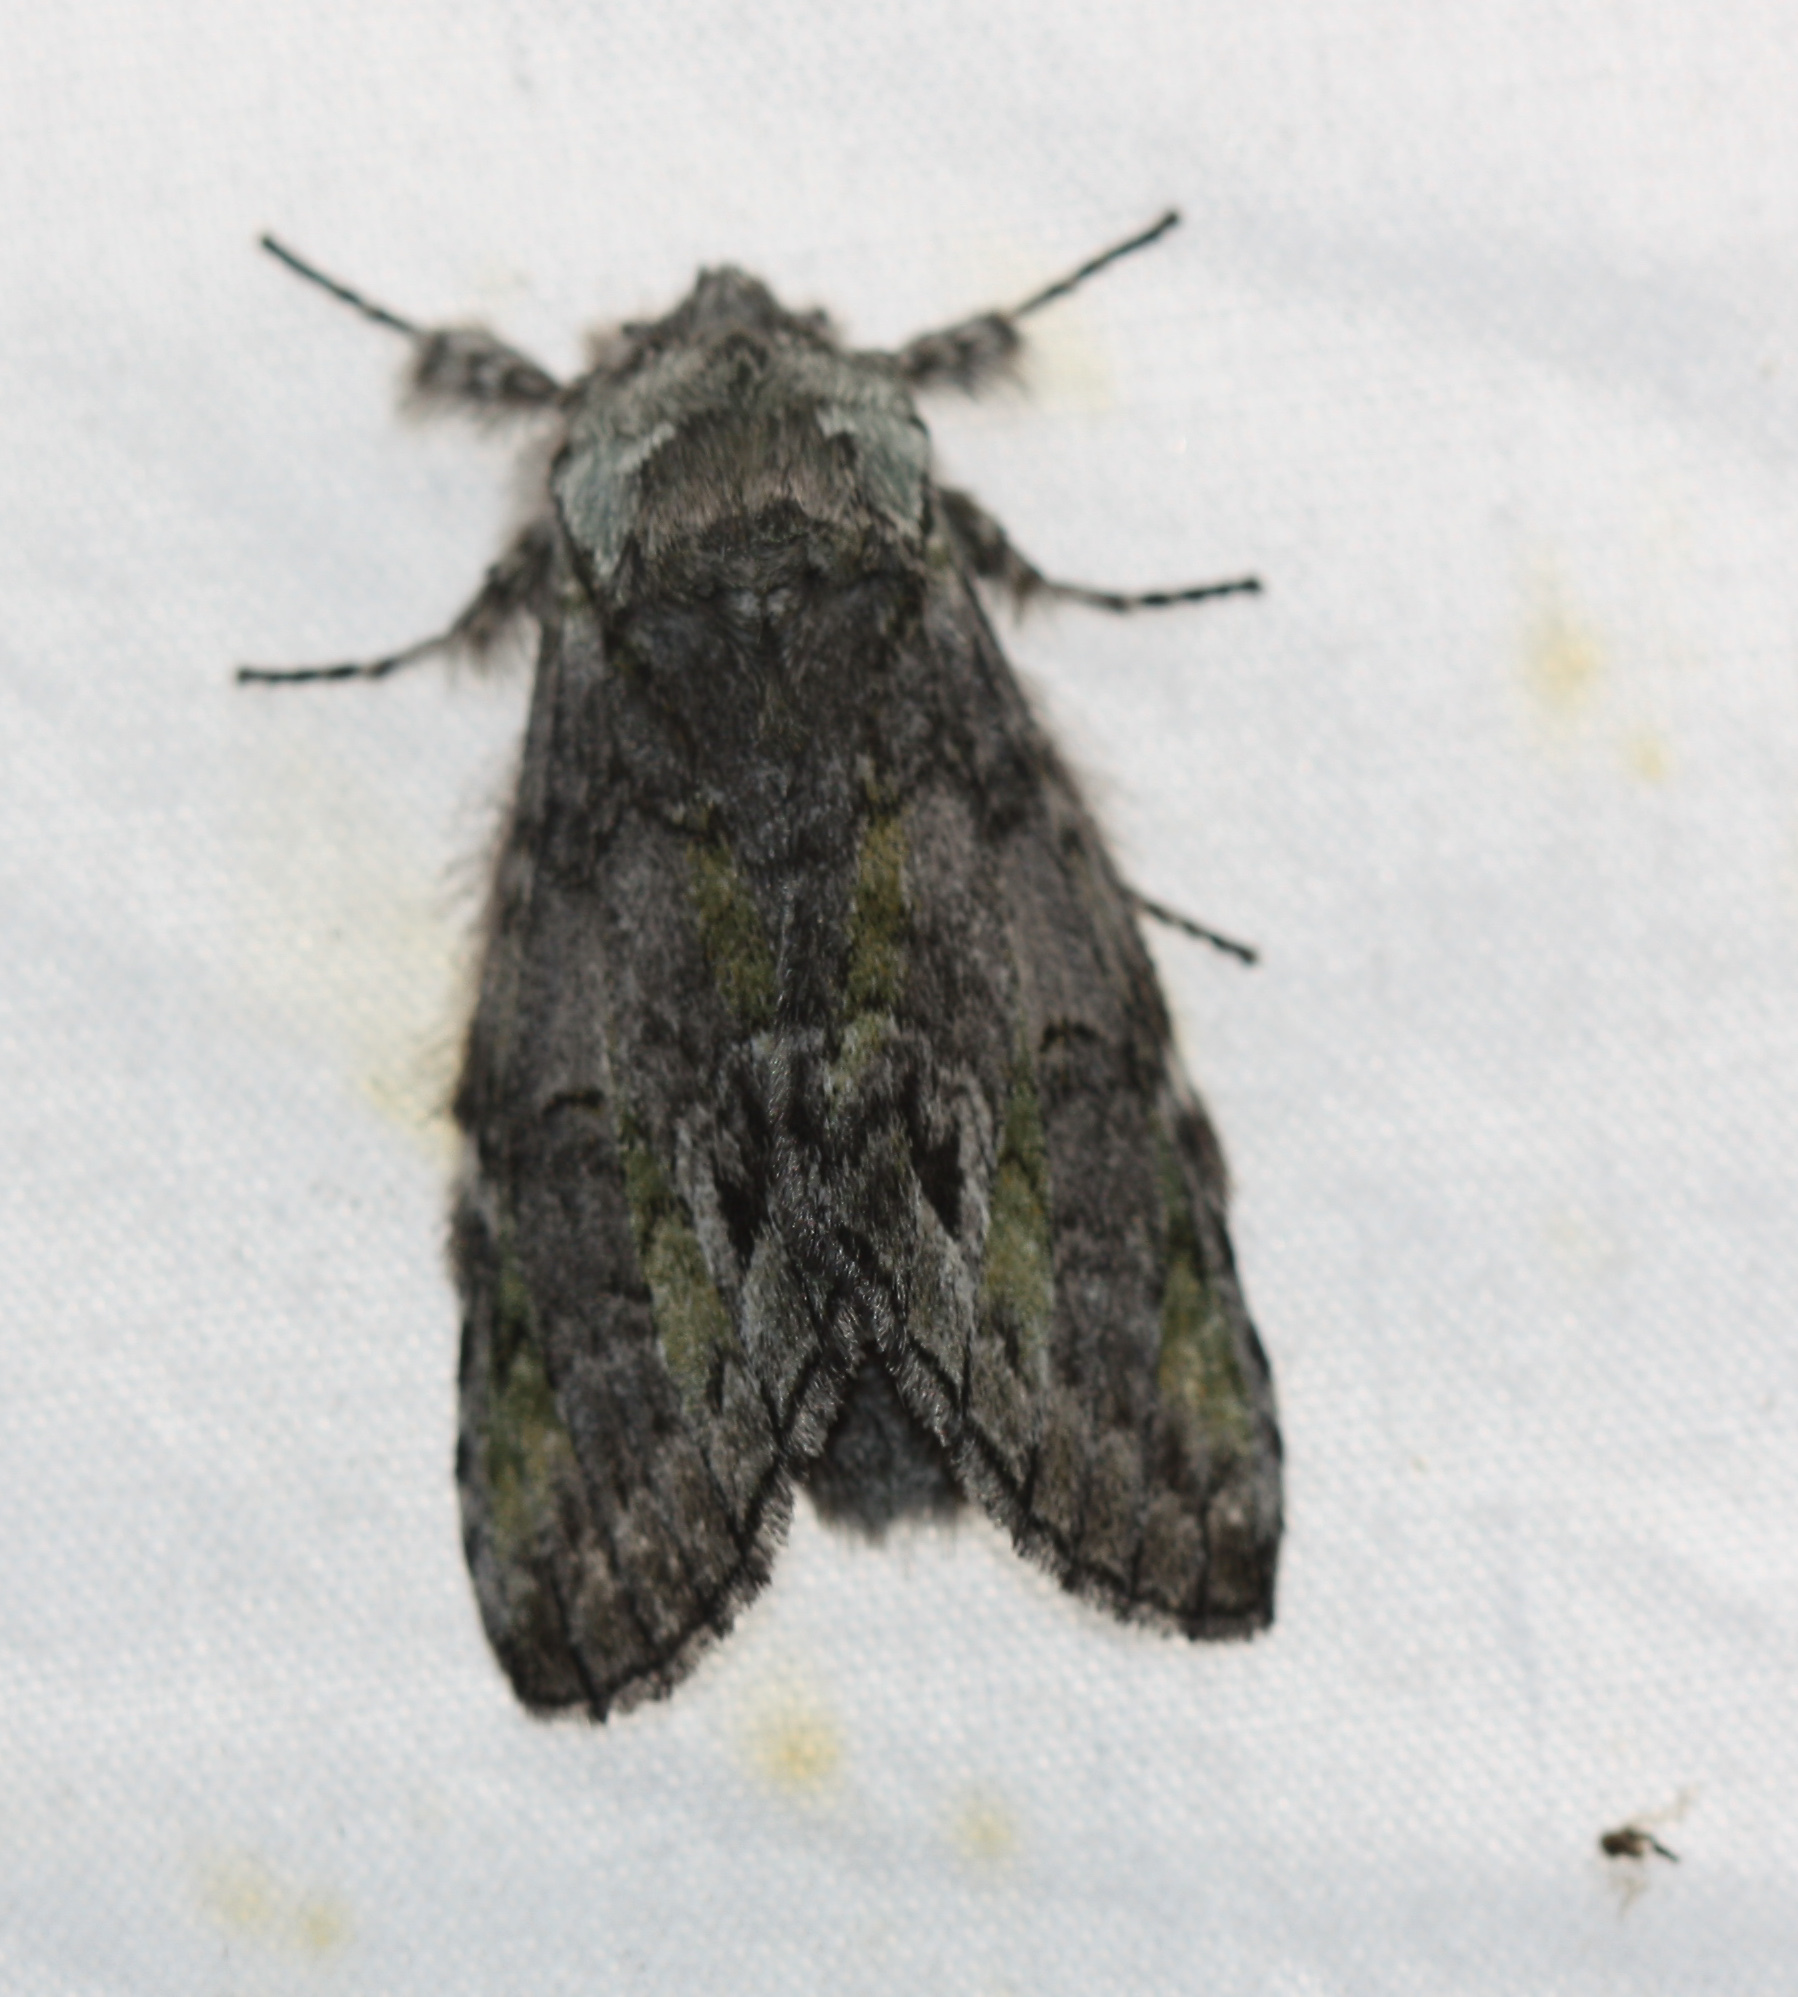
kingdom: Animalia
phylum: Arthropoda
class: Insecta
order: Lepidoptera
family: Notodontidae
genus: Macrurocampa
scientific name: Macrurocampa marthesia
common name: Mottled prominent
